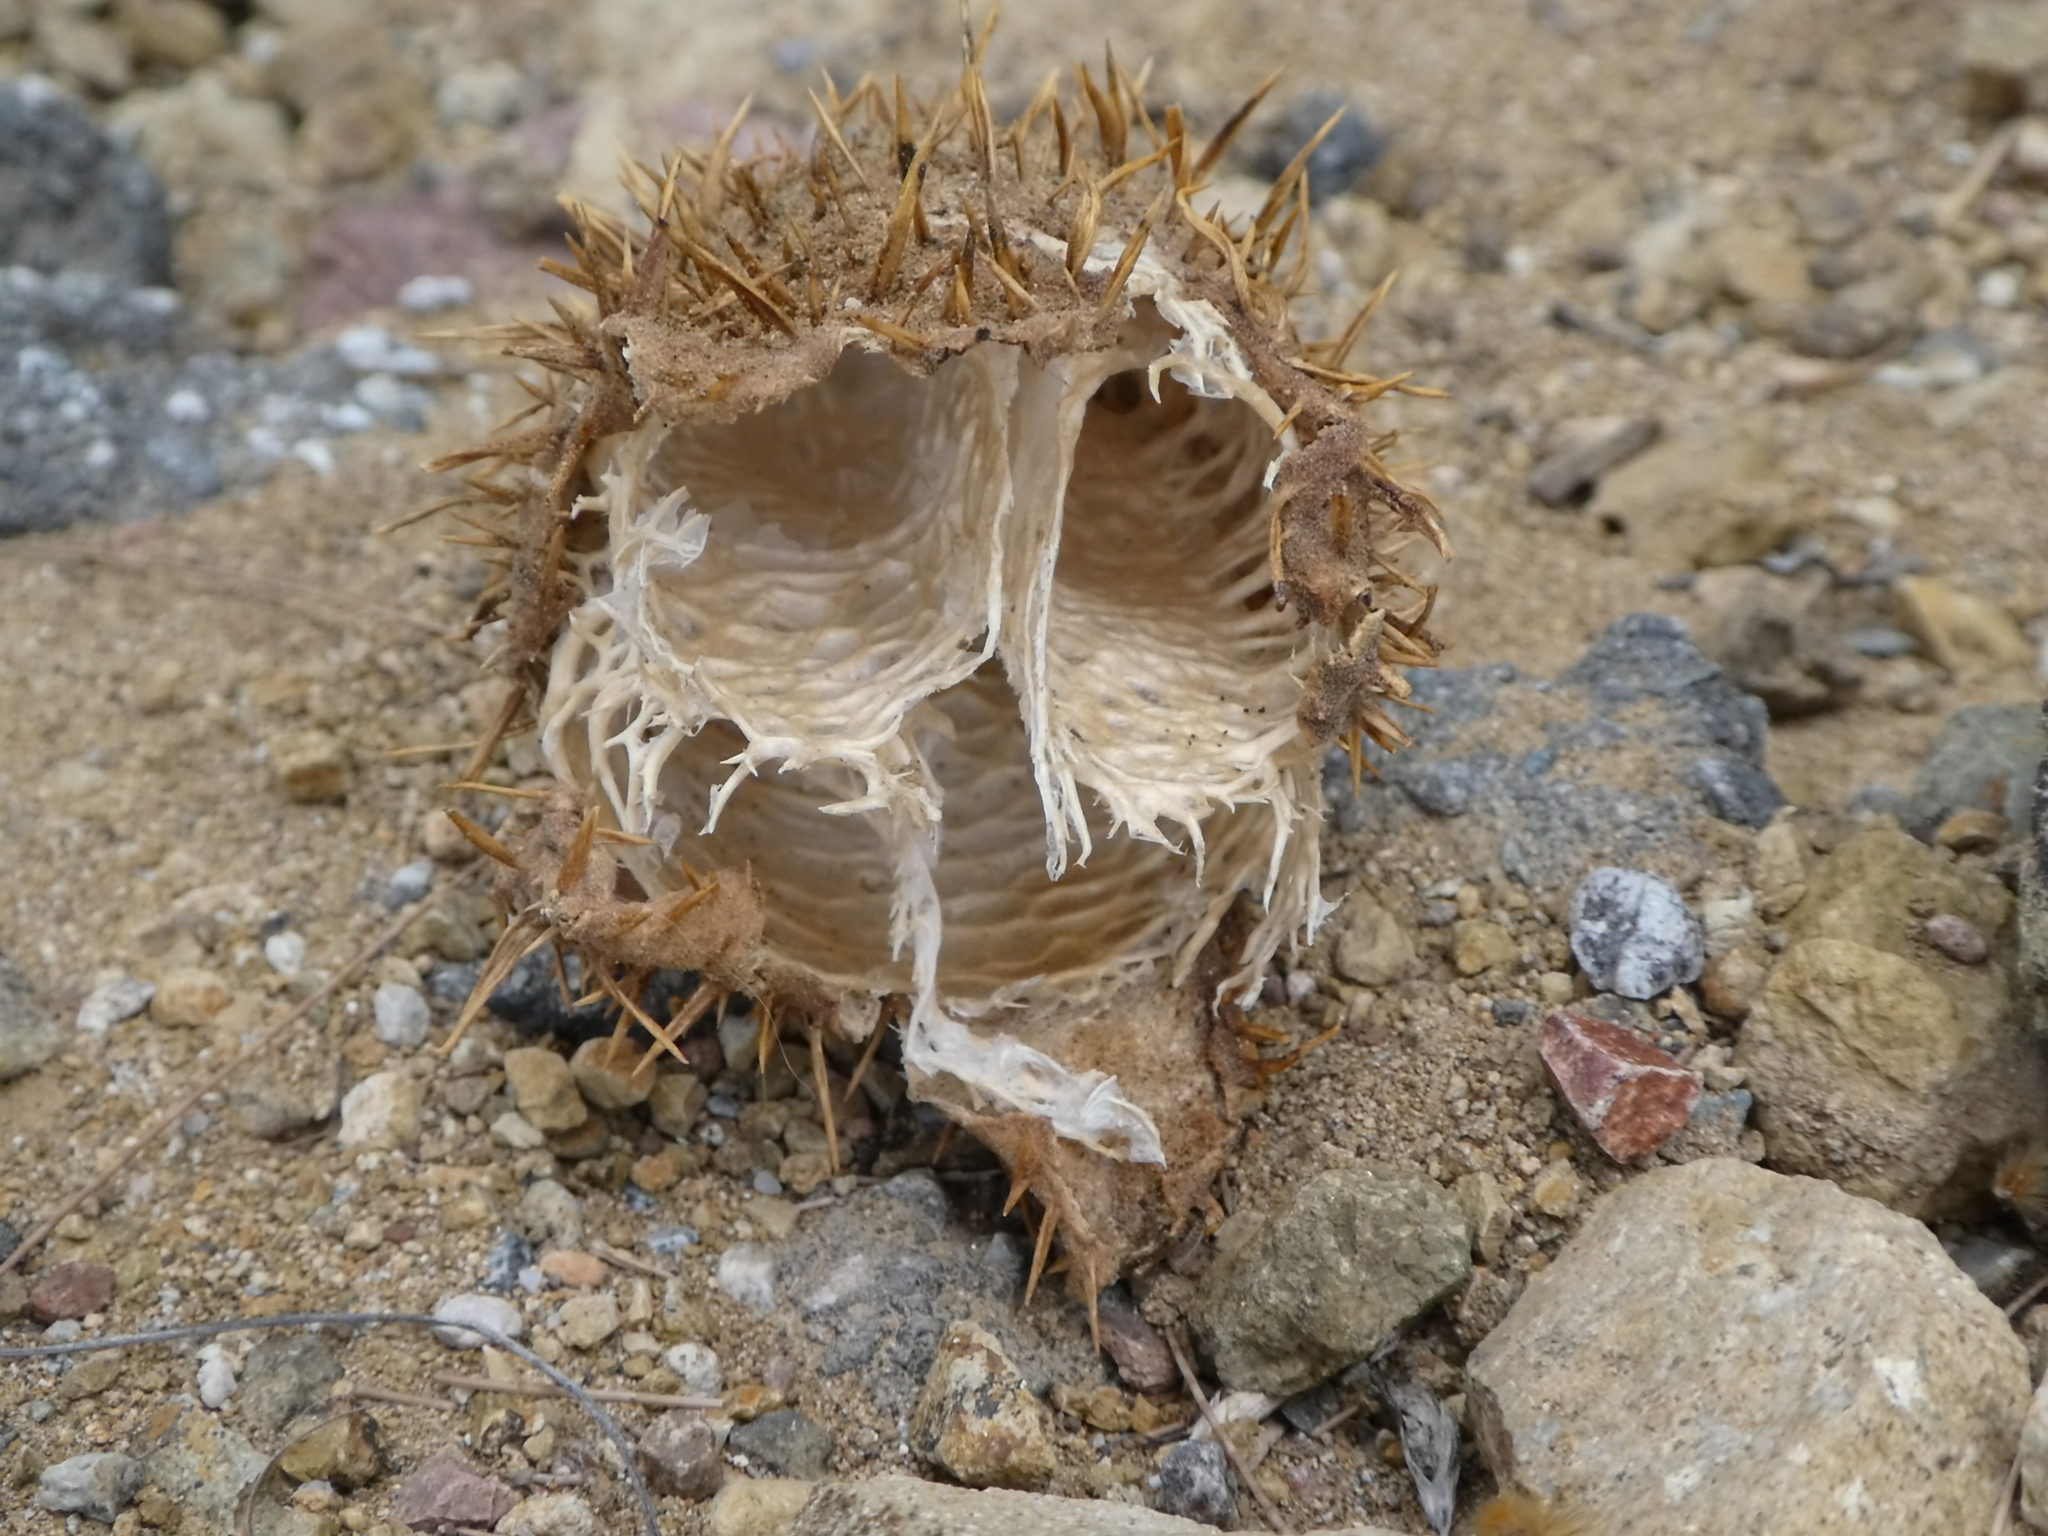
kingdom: Plantae
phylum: Tracheophyta
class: Magnoliopsida
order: Cucurbitales
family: Cucurbitaceae
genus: Marah
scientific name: Marah macrocarpa
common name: Cucamonga manroot
